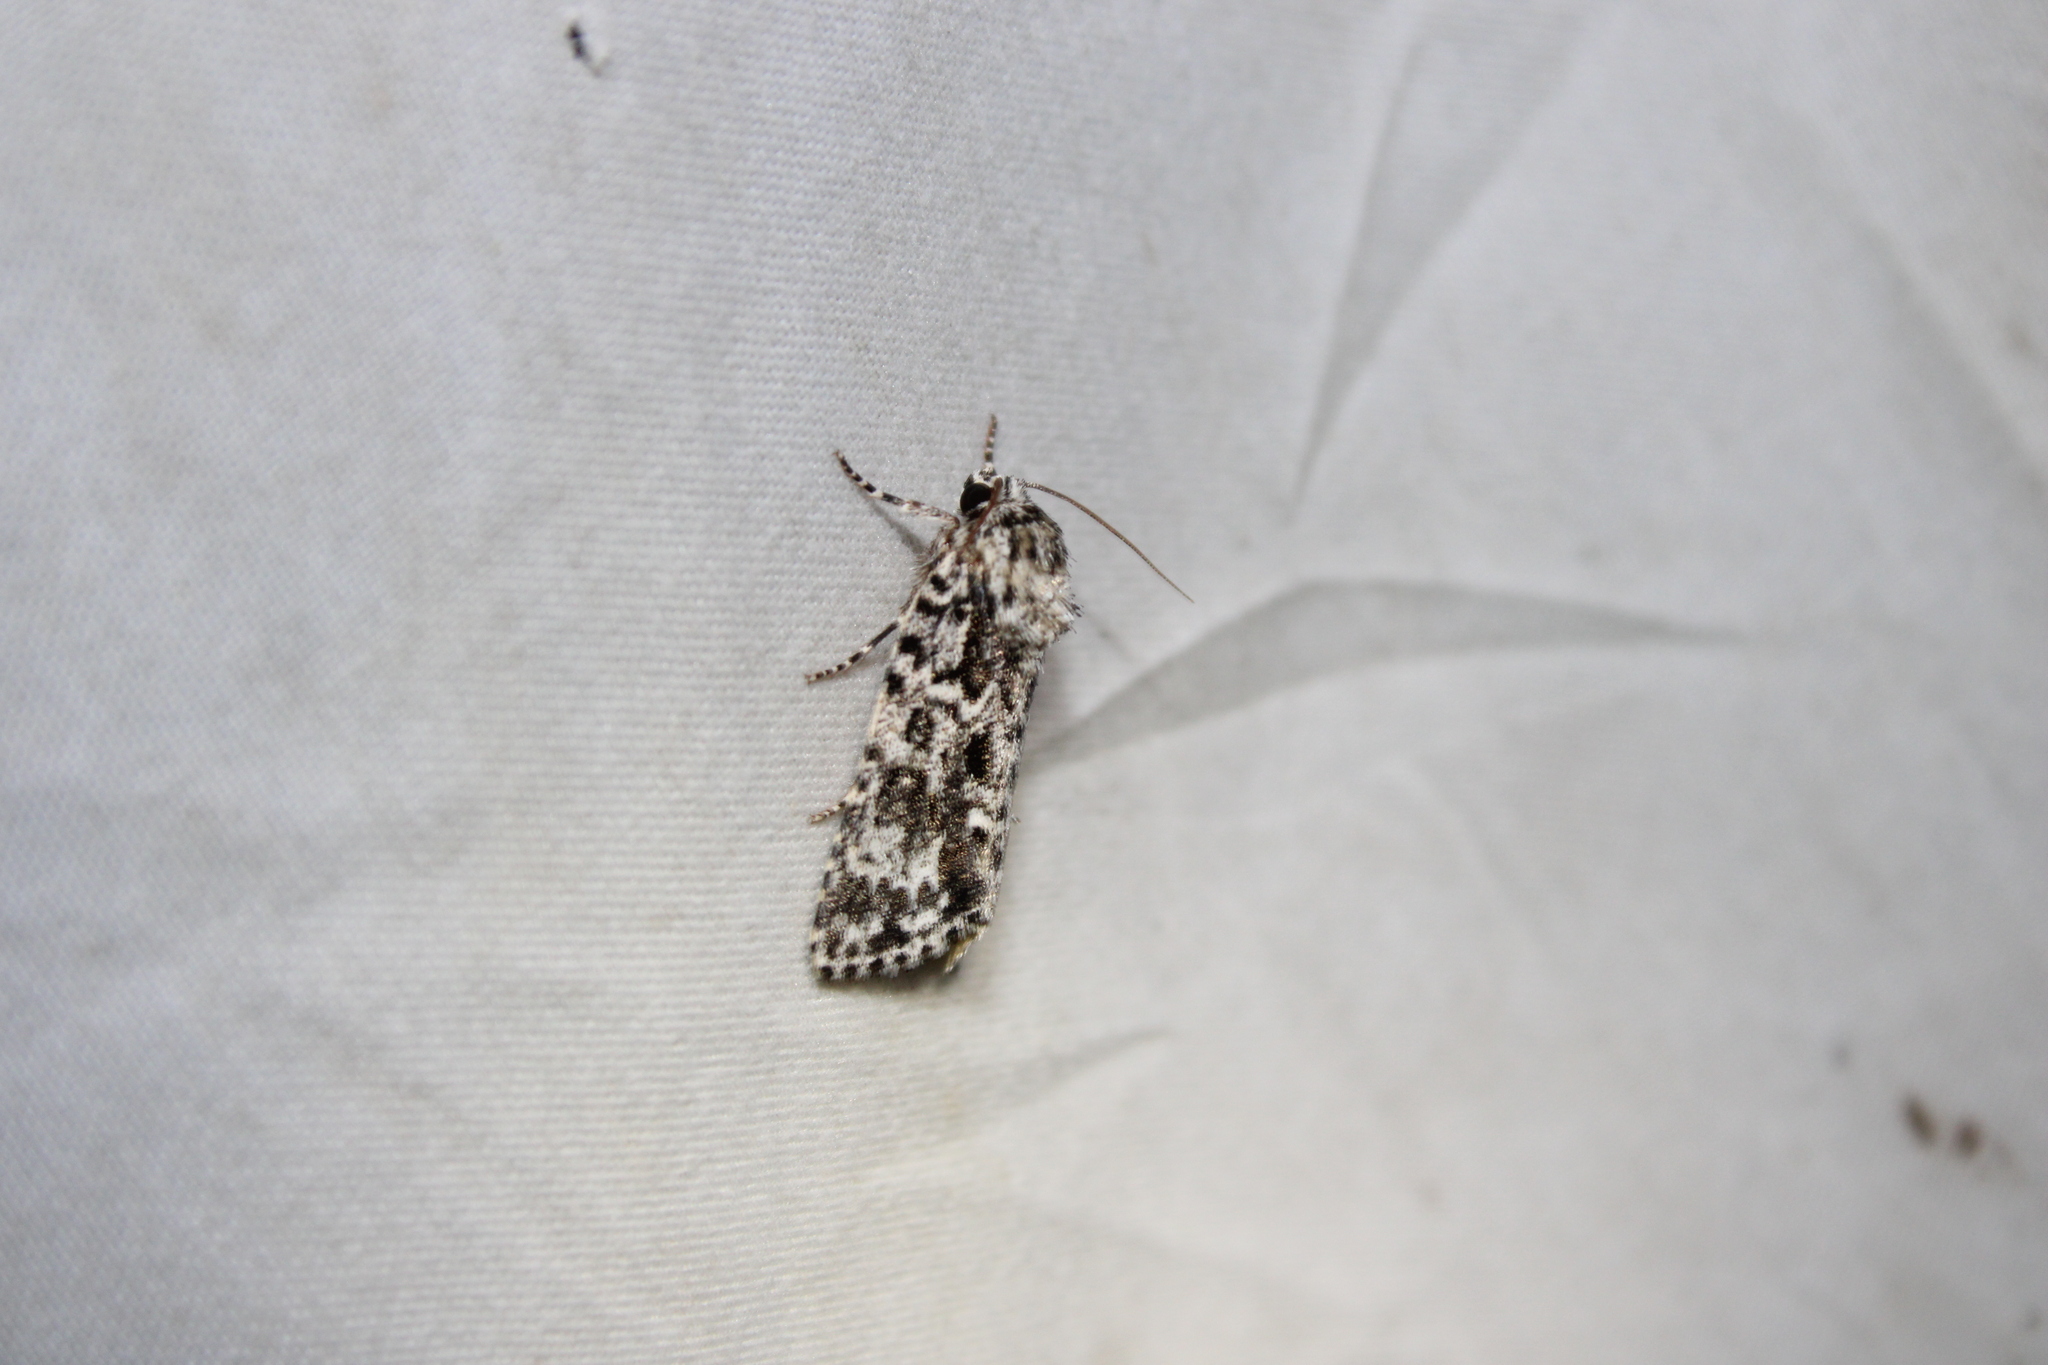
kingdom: Animalia
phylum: Arthropoda
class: Insecta
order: Lepidoptera
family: Noctuidae
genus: Acronicta
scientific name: Acronicta noctivaga
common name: Night-wandering dagger
